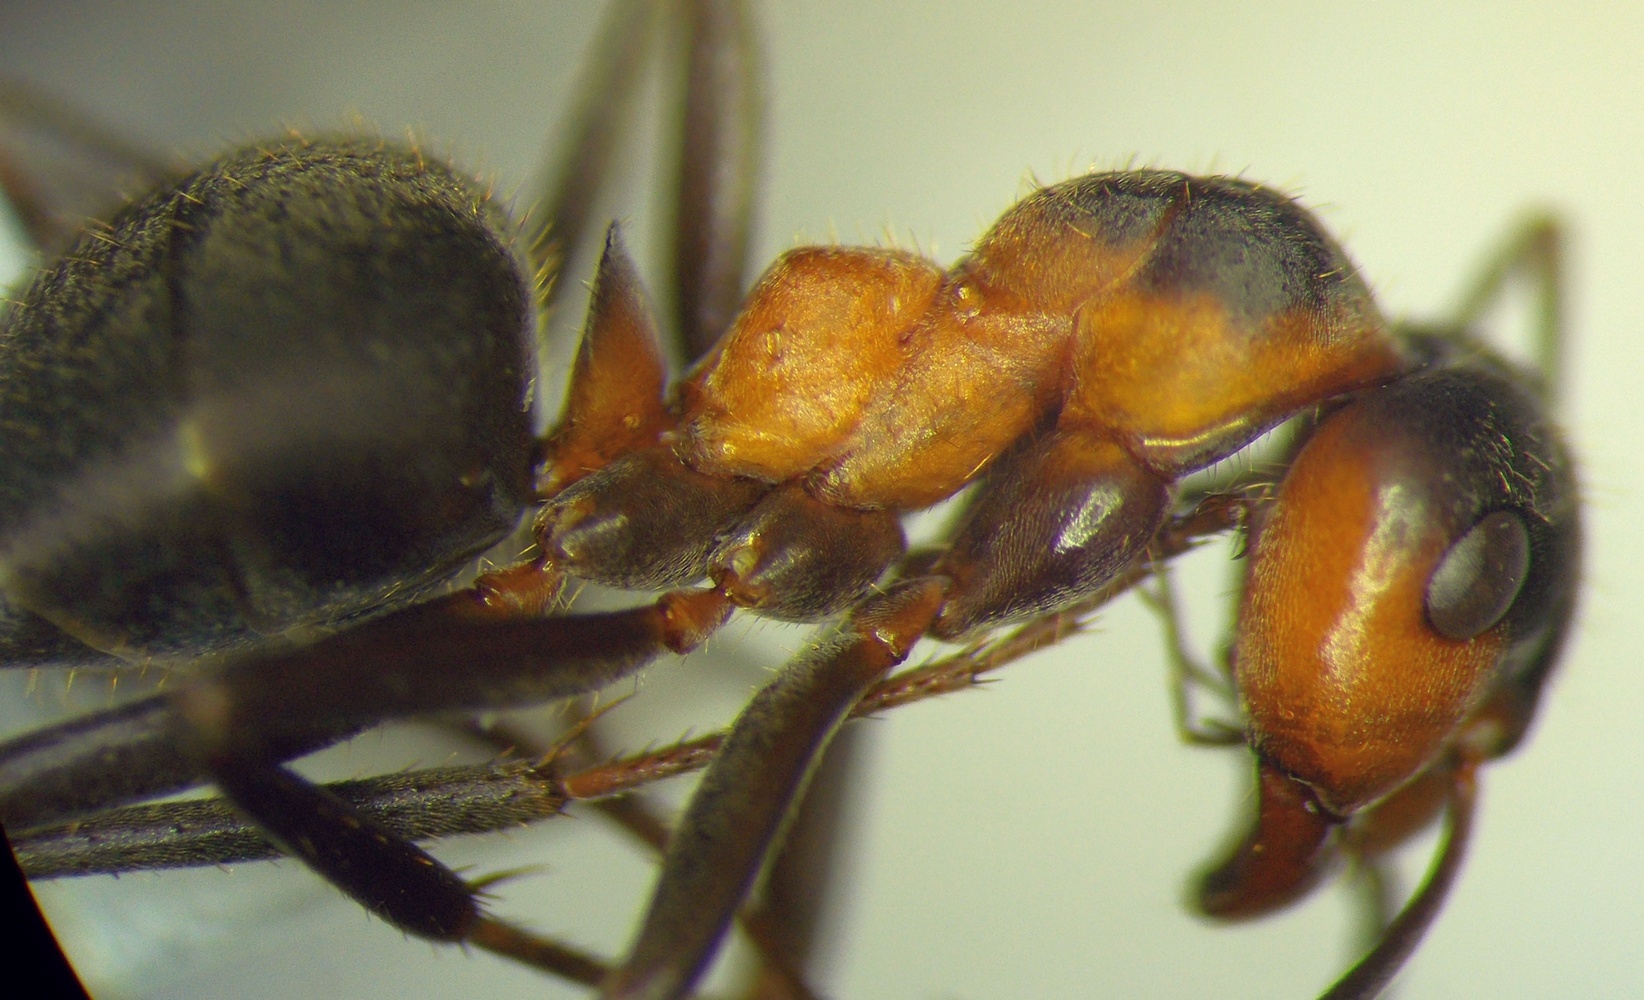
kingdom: Animalia
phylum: Arthropoda
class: Insecta
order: Hymenoptera
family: Formicidae
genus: Formica
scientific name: Formica pratensis
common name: European red wood ant
